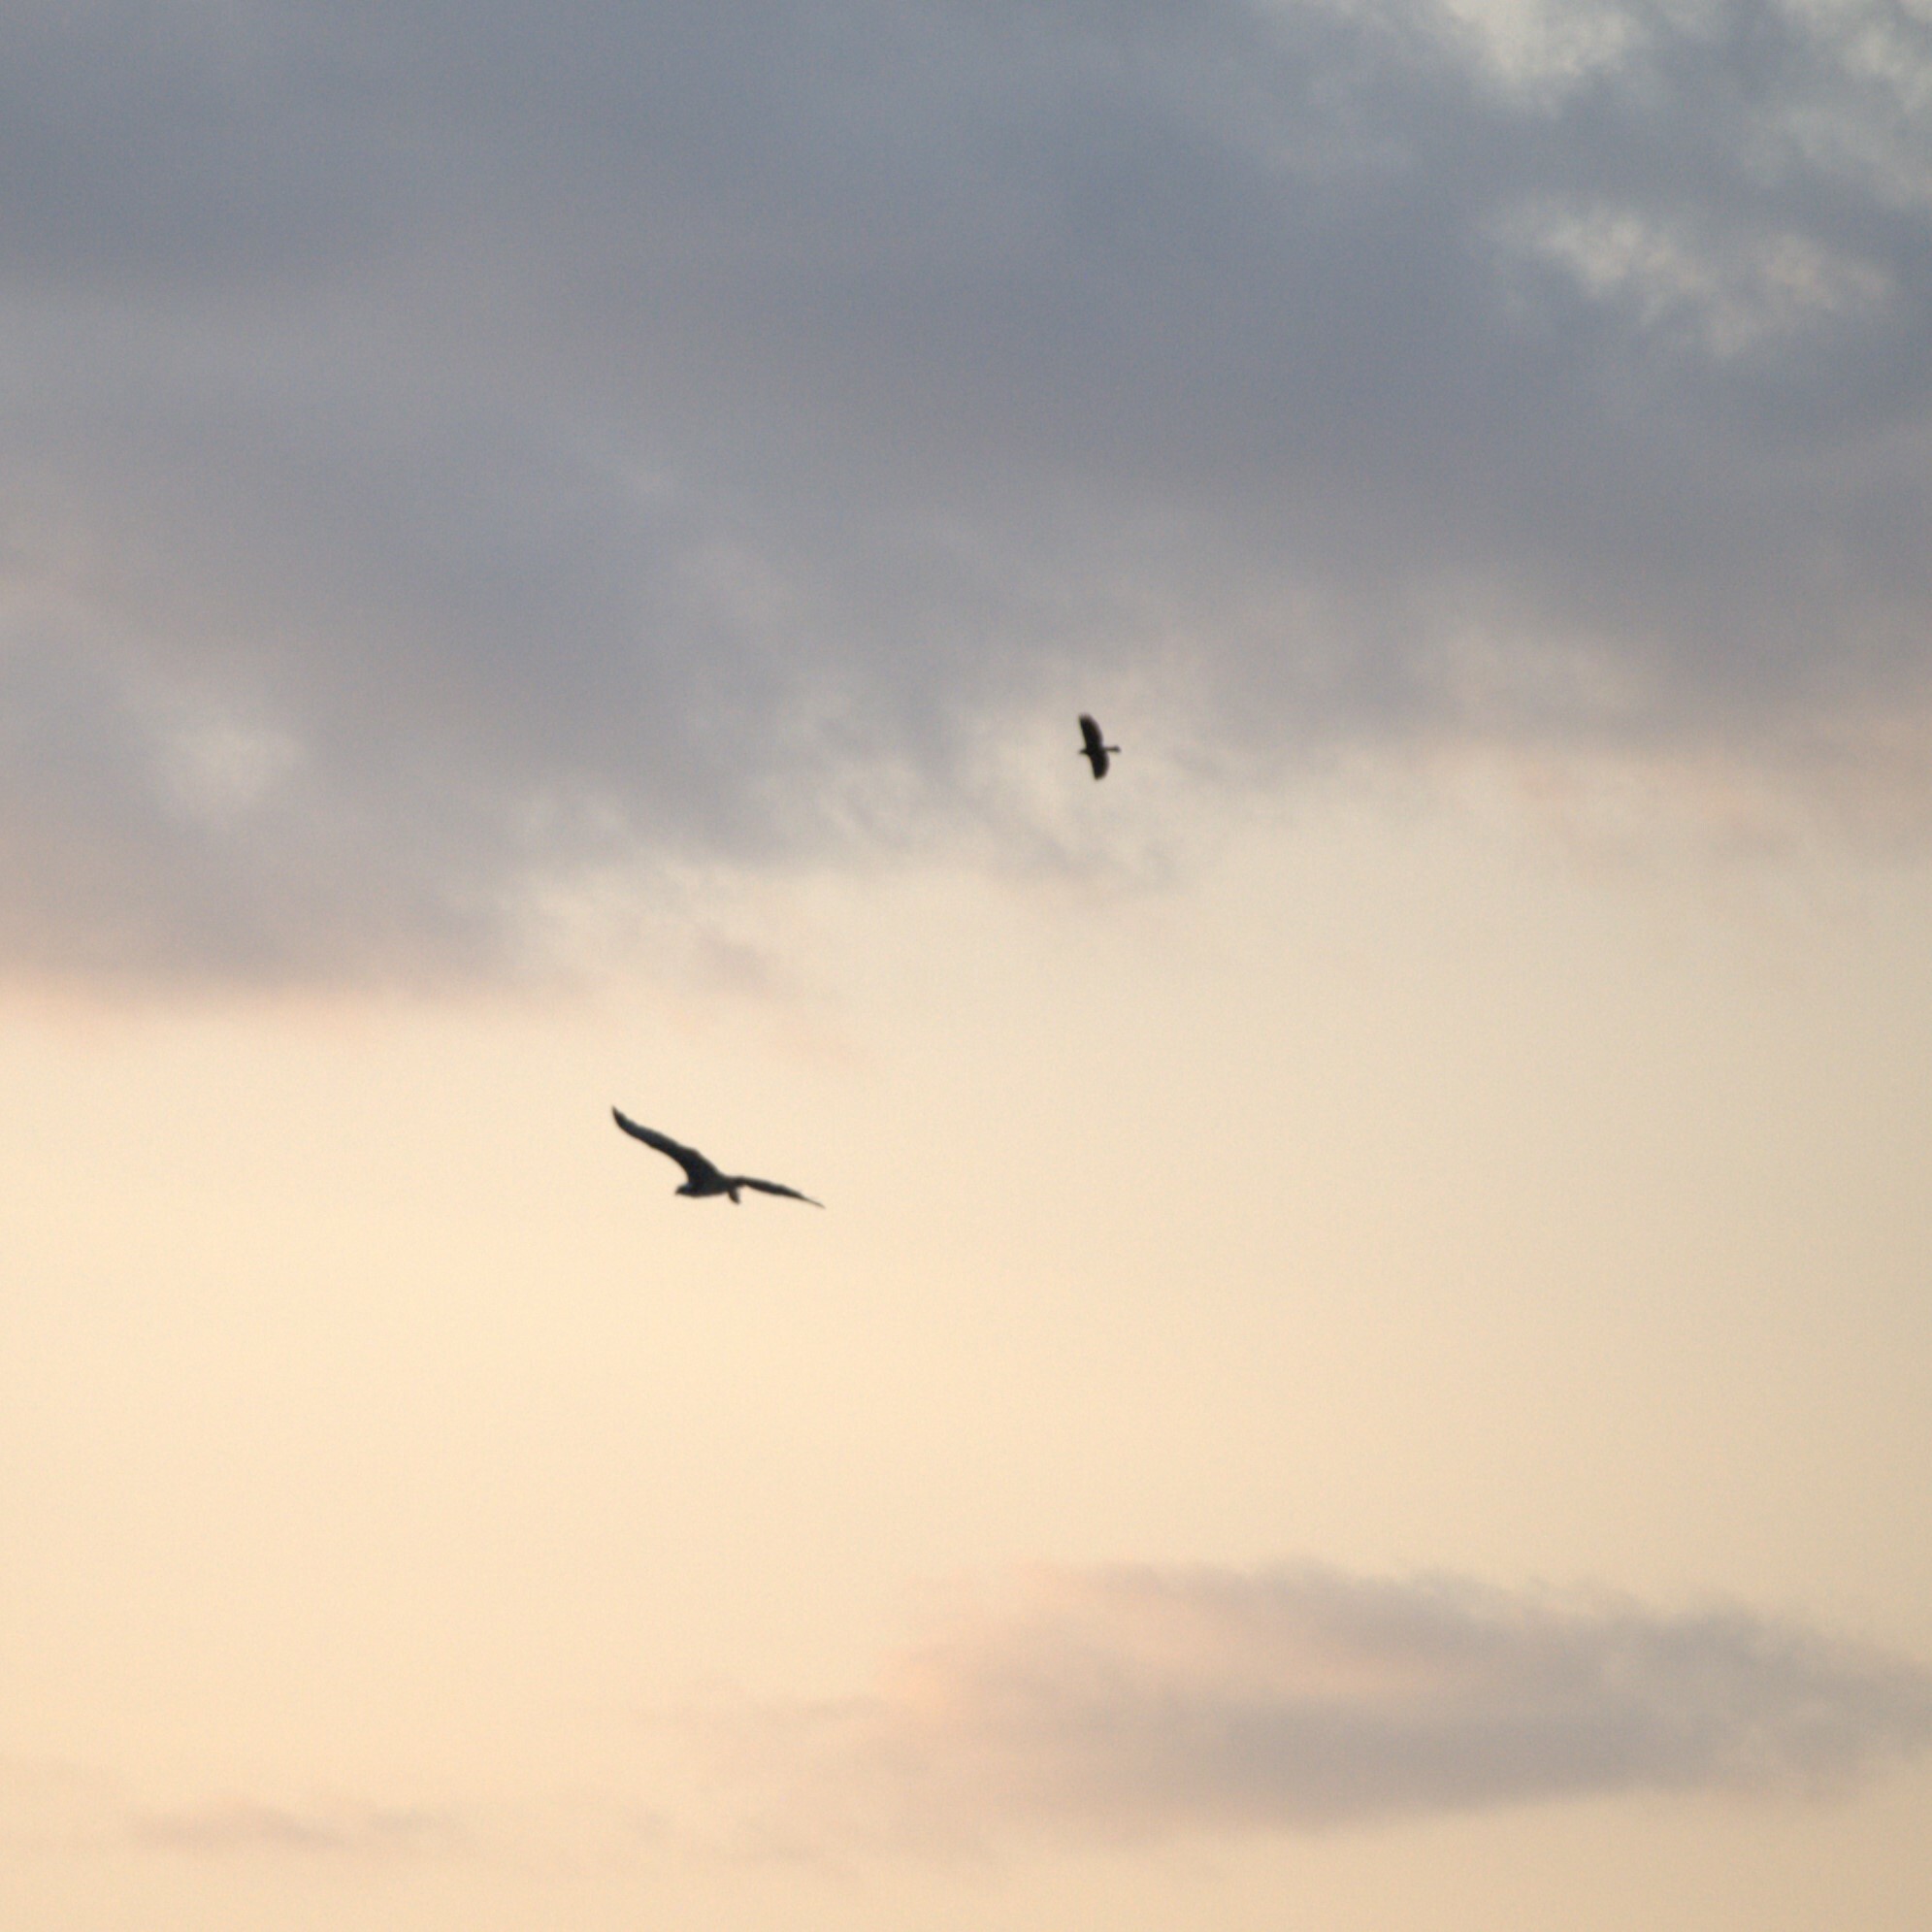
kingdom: Animalia
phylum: Chordata
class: Aves
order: Accipitriformes
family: Pandionidae
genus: Pandion
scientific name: Pandion haliaetus
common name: Osprey
